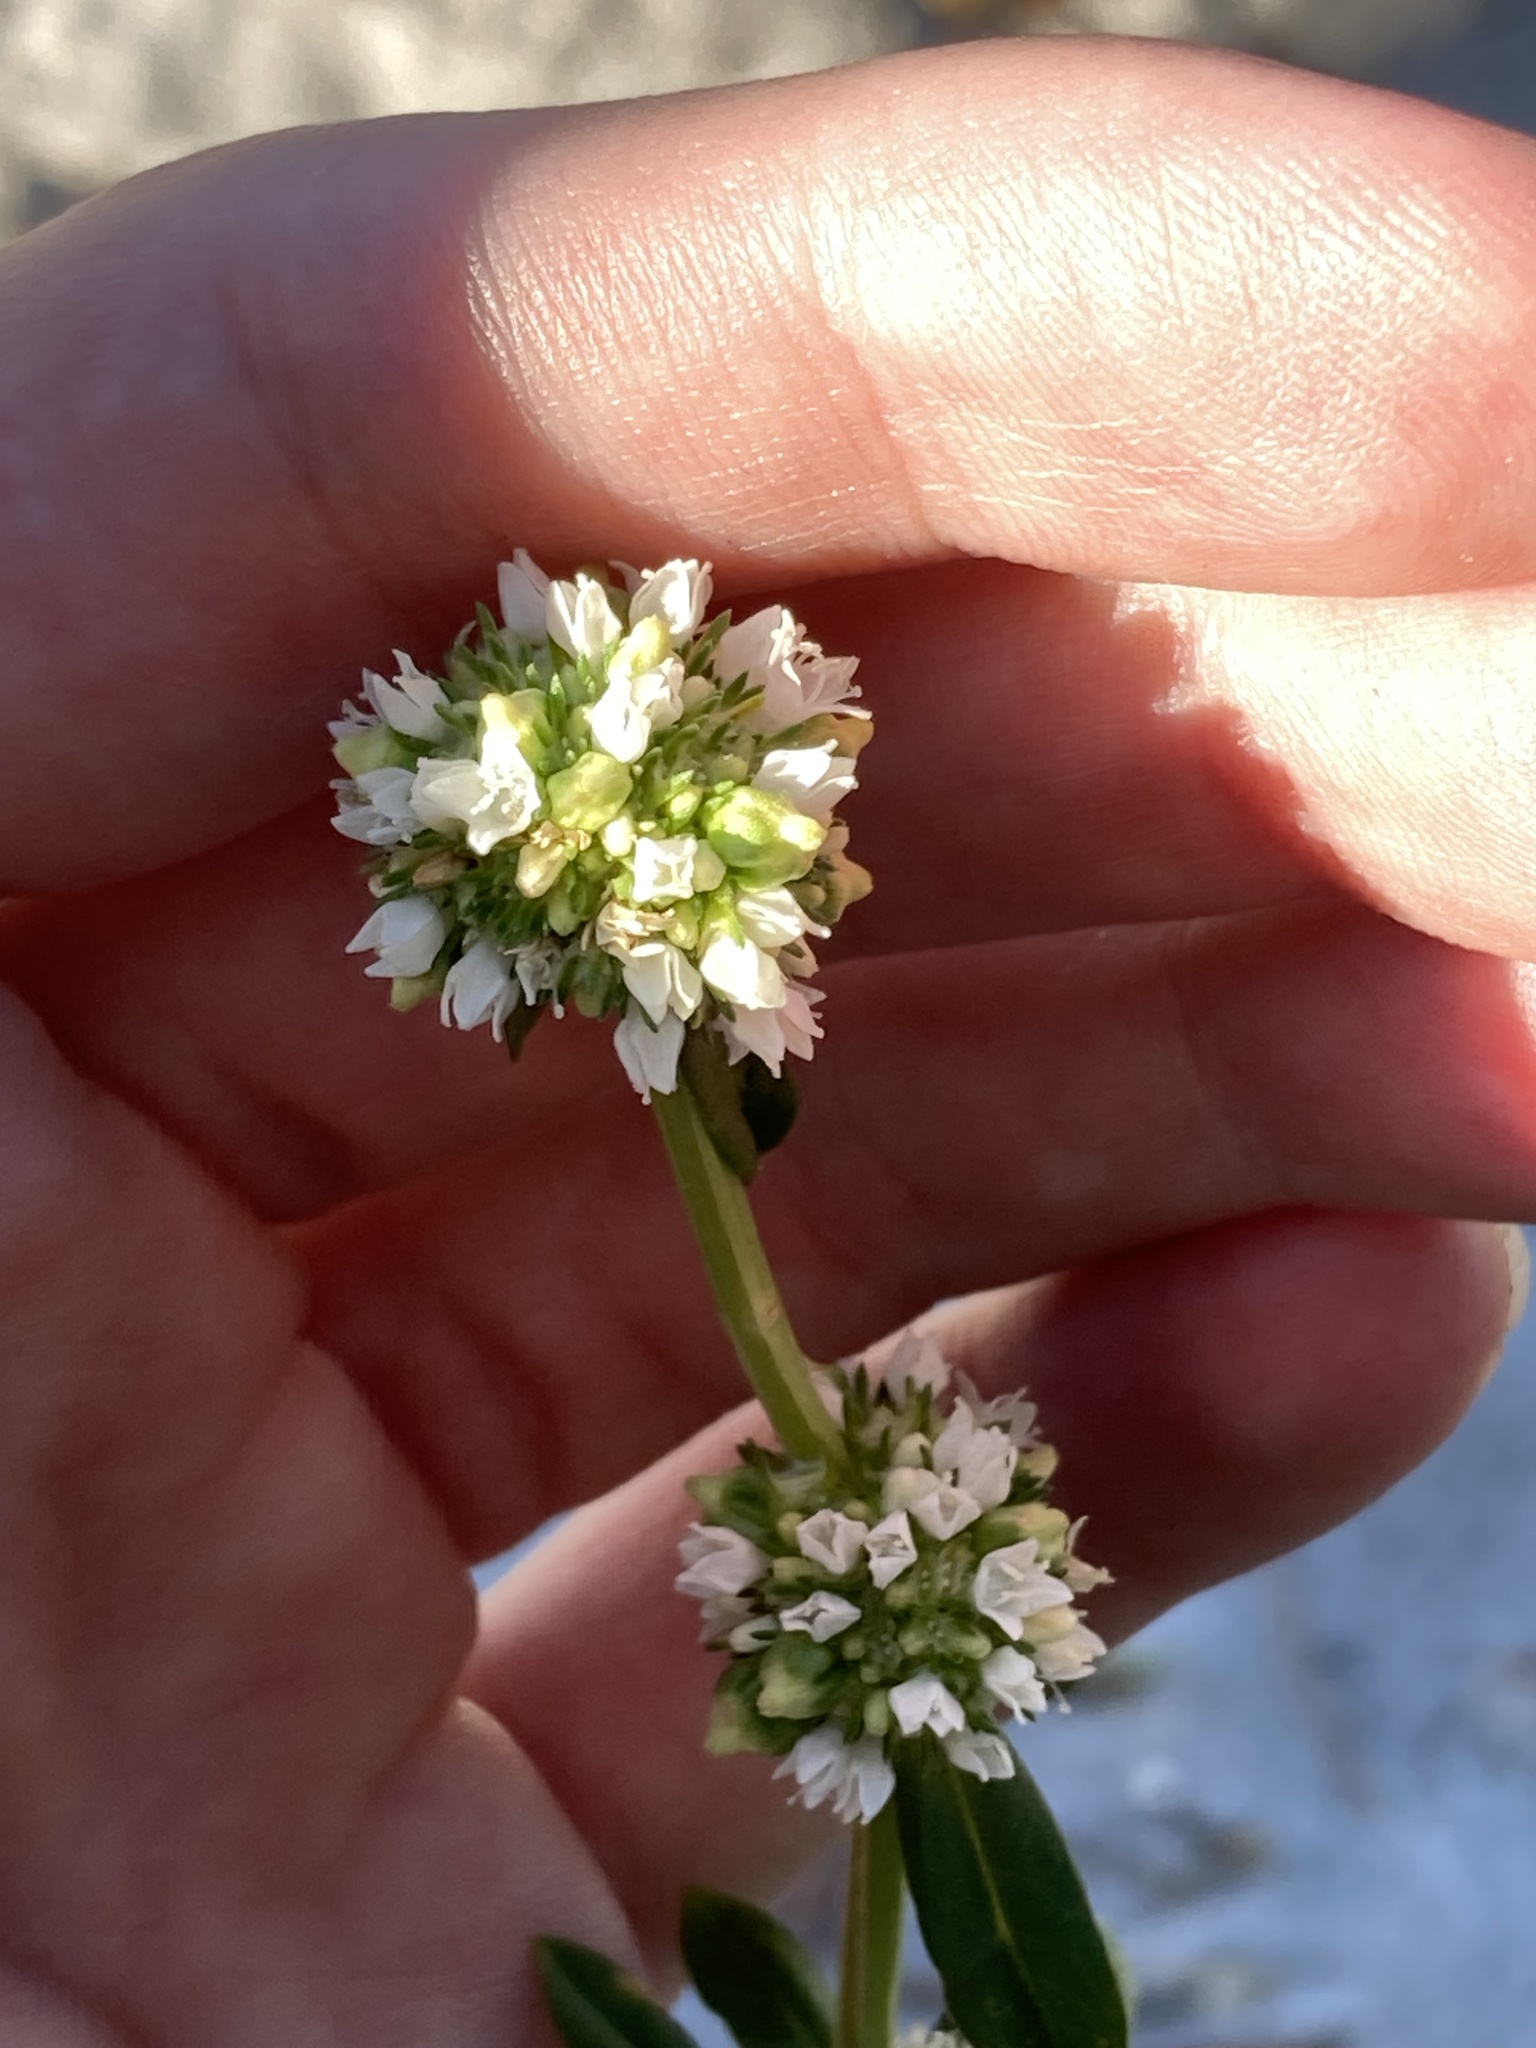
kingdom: Plantae
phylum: Tracheophyta
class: Magnoliopsida
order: Gentianales
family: Rubiaceae
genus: Spermacoce
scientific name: Spermacoce verticillata
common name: Shrubby false buttonweed
